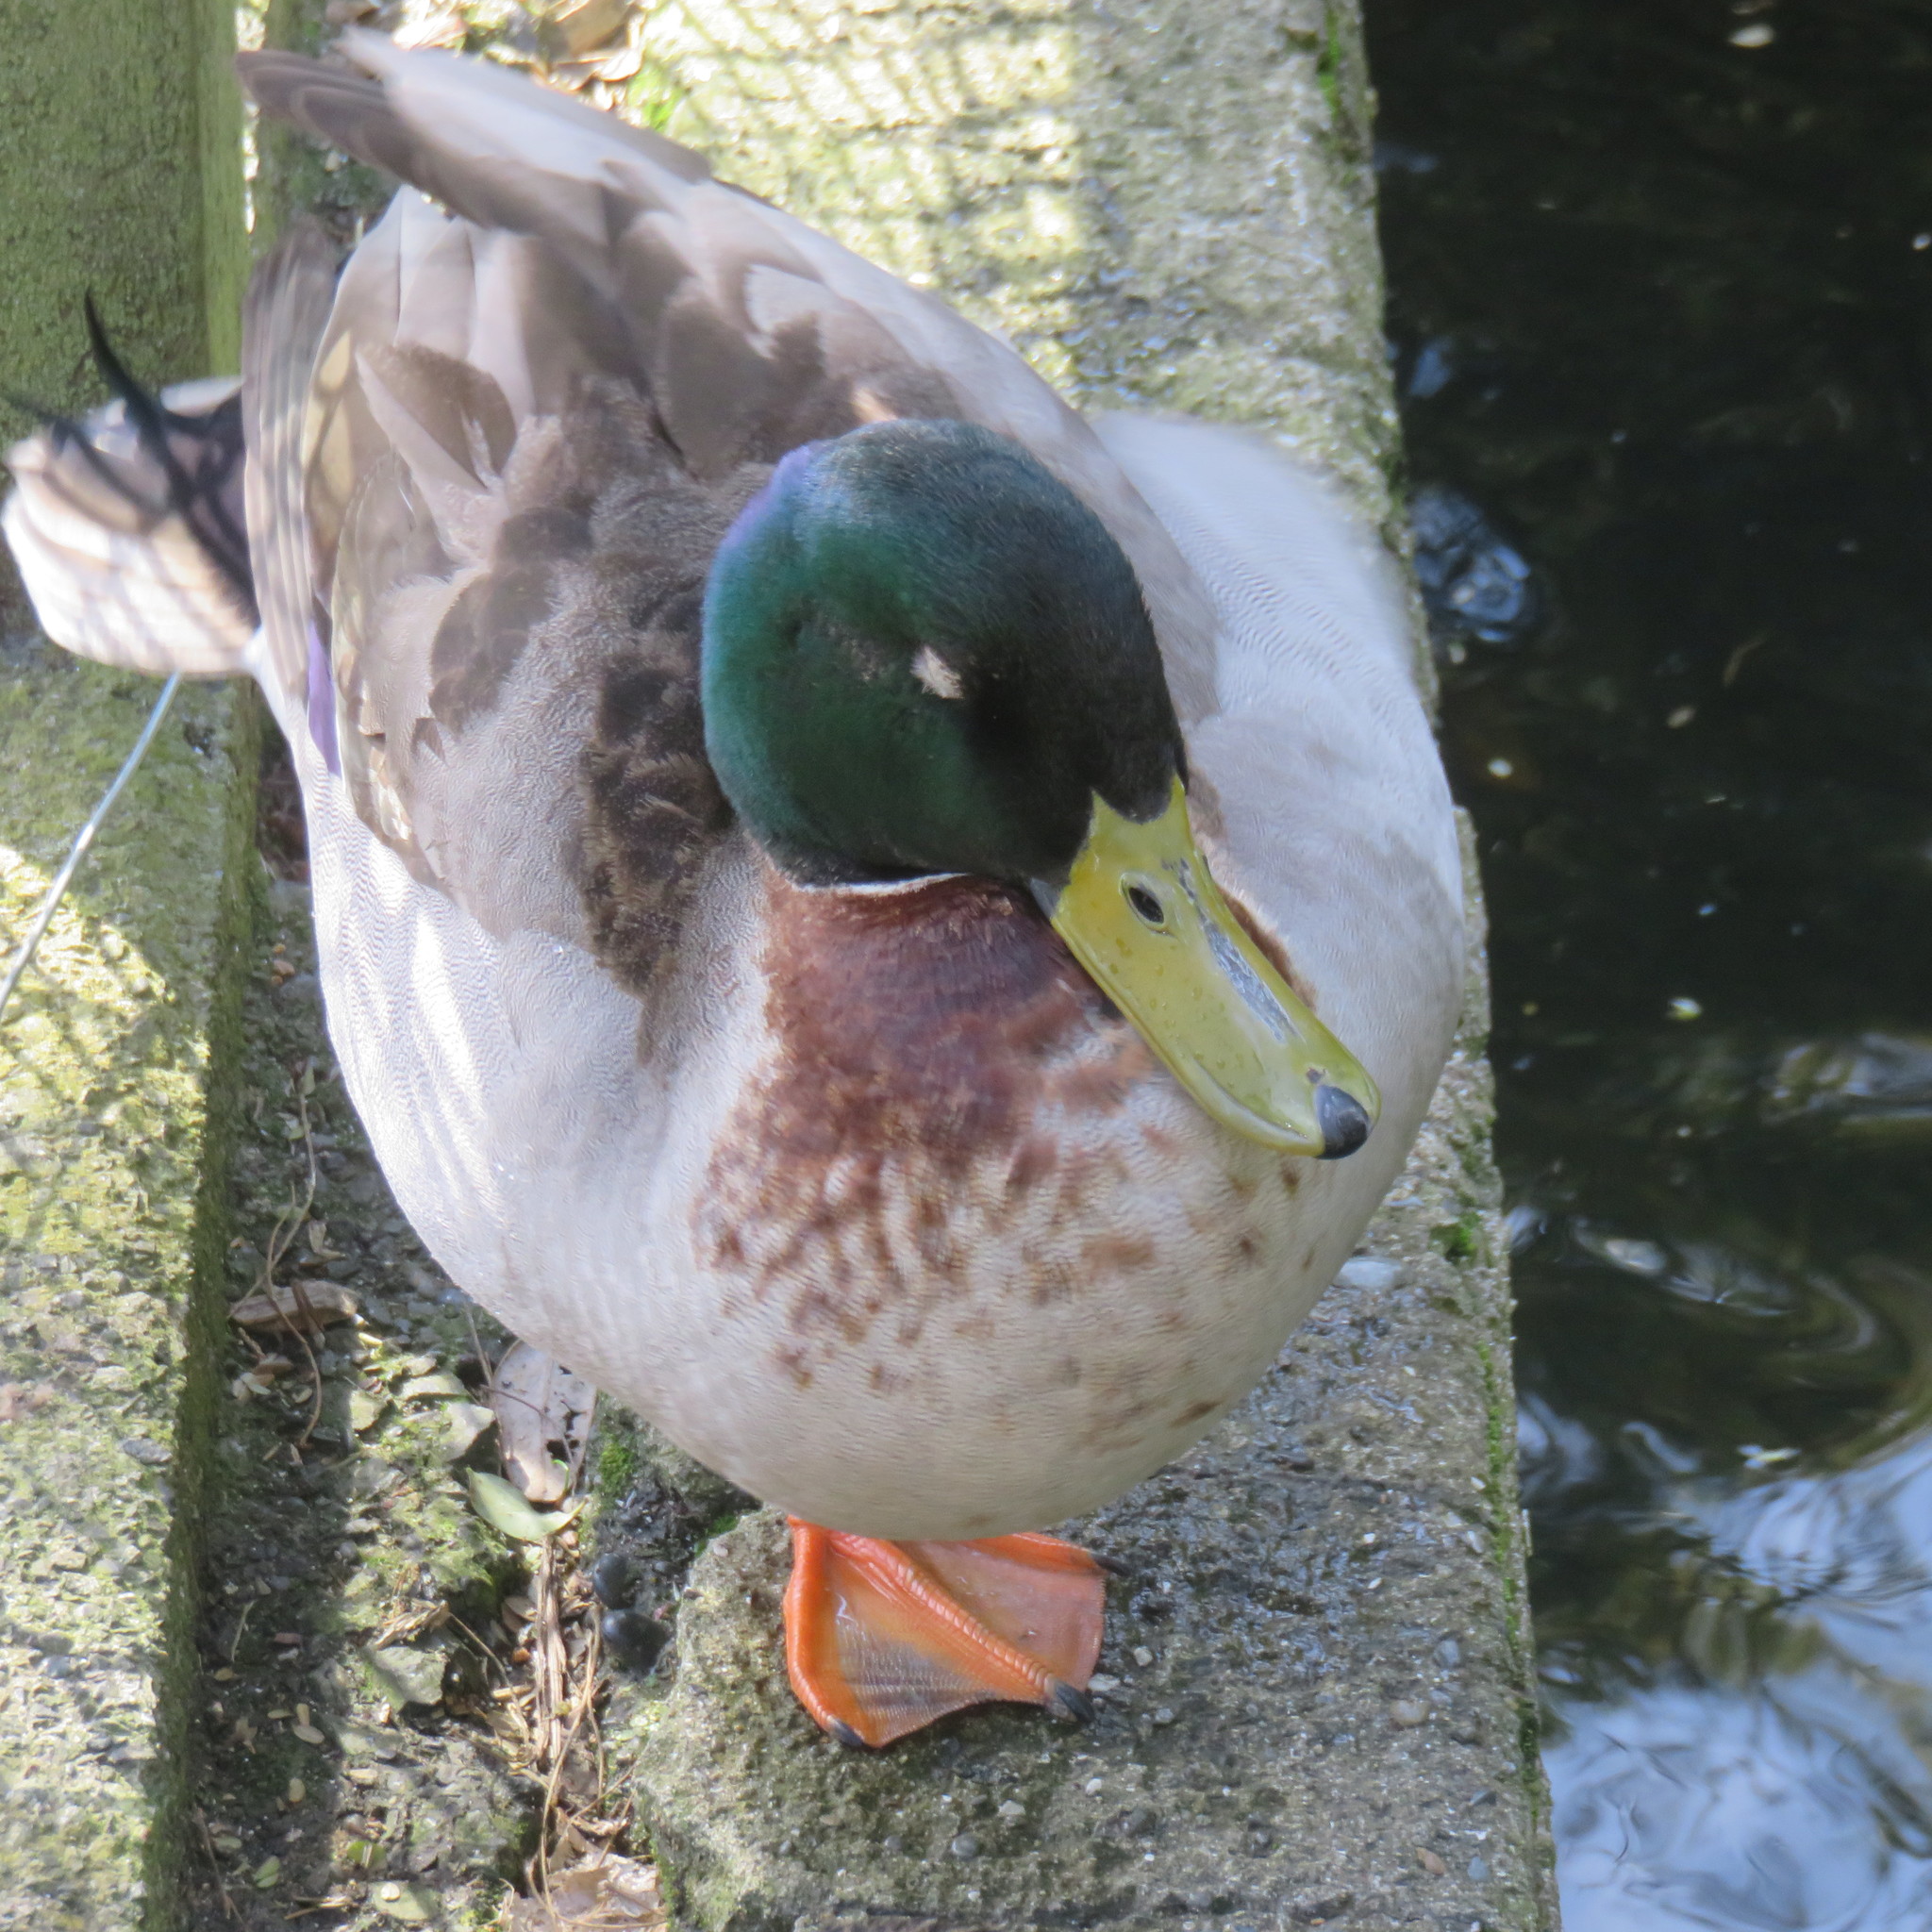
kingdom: Animalia
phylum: Chordata
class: Aves
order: Anseriformes
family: Anatidae
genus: Anas
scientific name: Anas platyrhynchos
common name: Mallard
